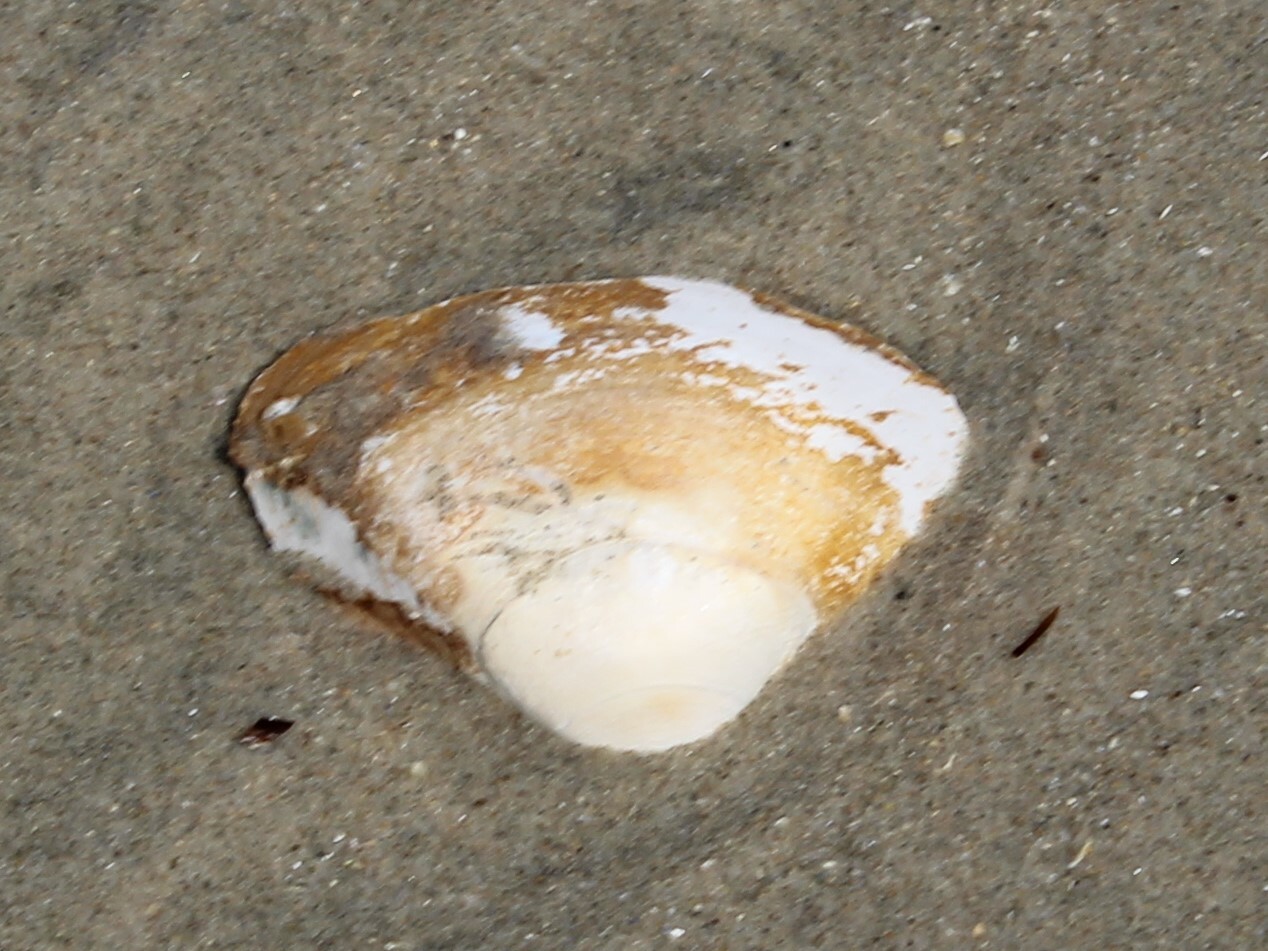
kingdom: Animalia
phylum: Mollusca
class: Bivalvia
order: Venerida
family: Mactridae
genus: Spisula
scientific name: Spisula solidissima
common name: Atlantic surf clam
